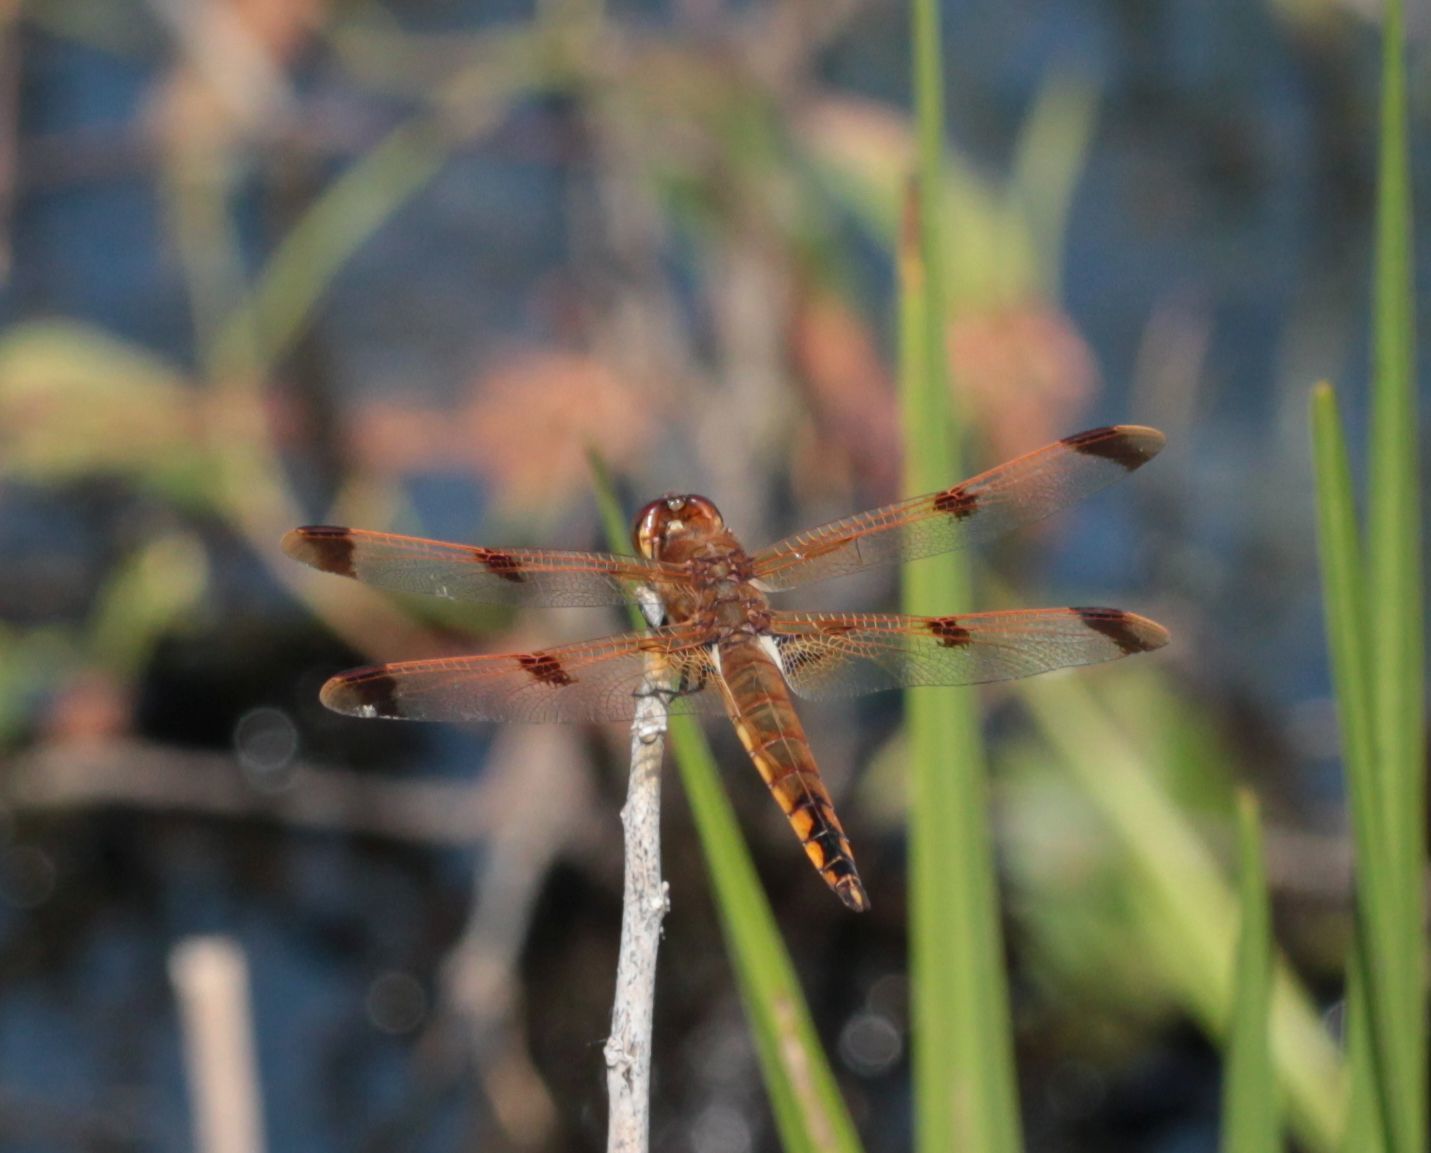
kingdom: Animalia
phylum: Arthropoda
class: Insecta
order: Odonata
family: Libellulidae
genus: Libellula
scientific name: Libellula semifasciata
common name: Painted skimmer
